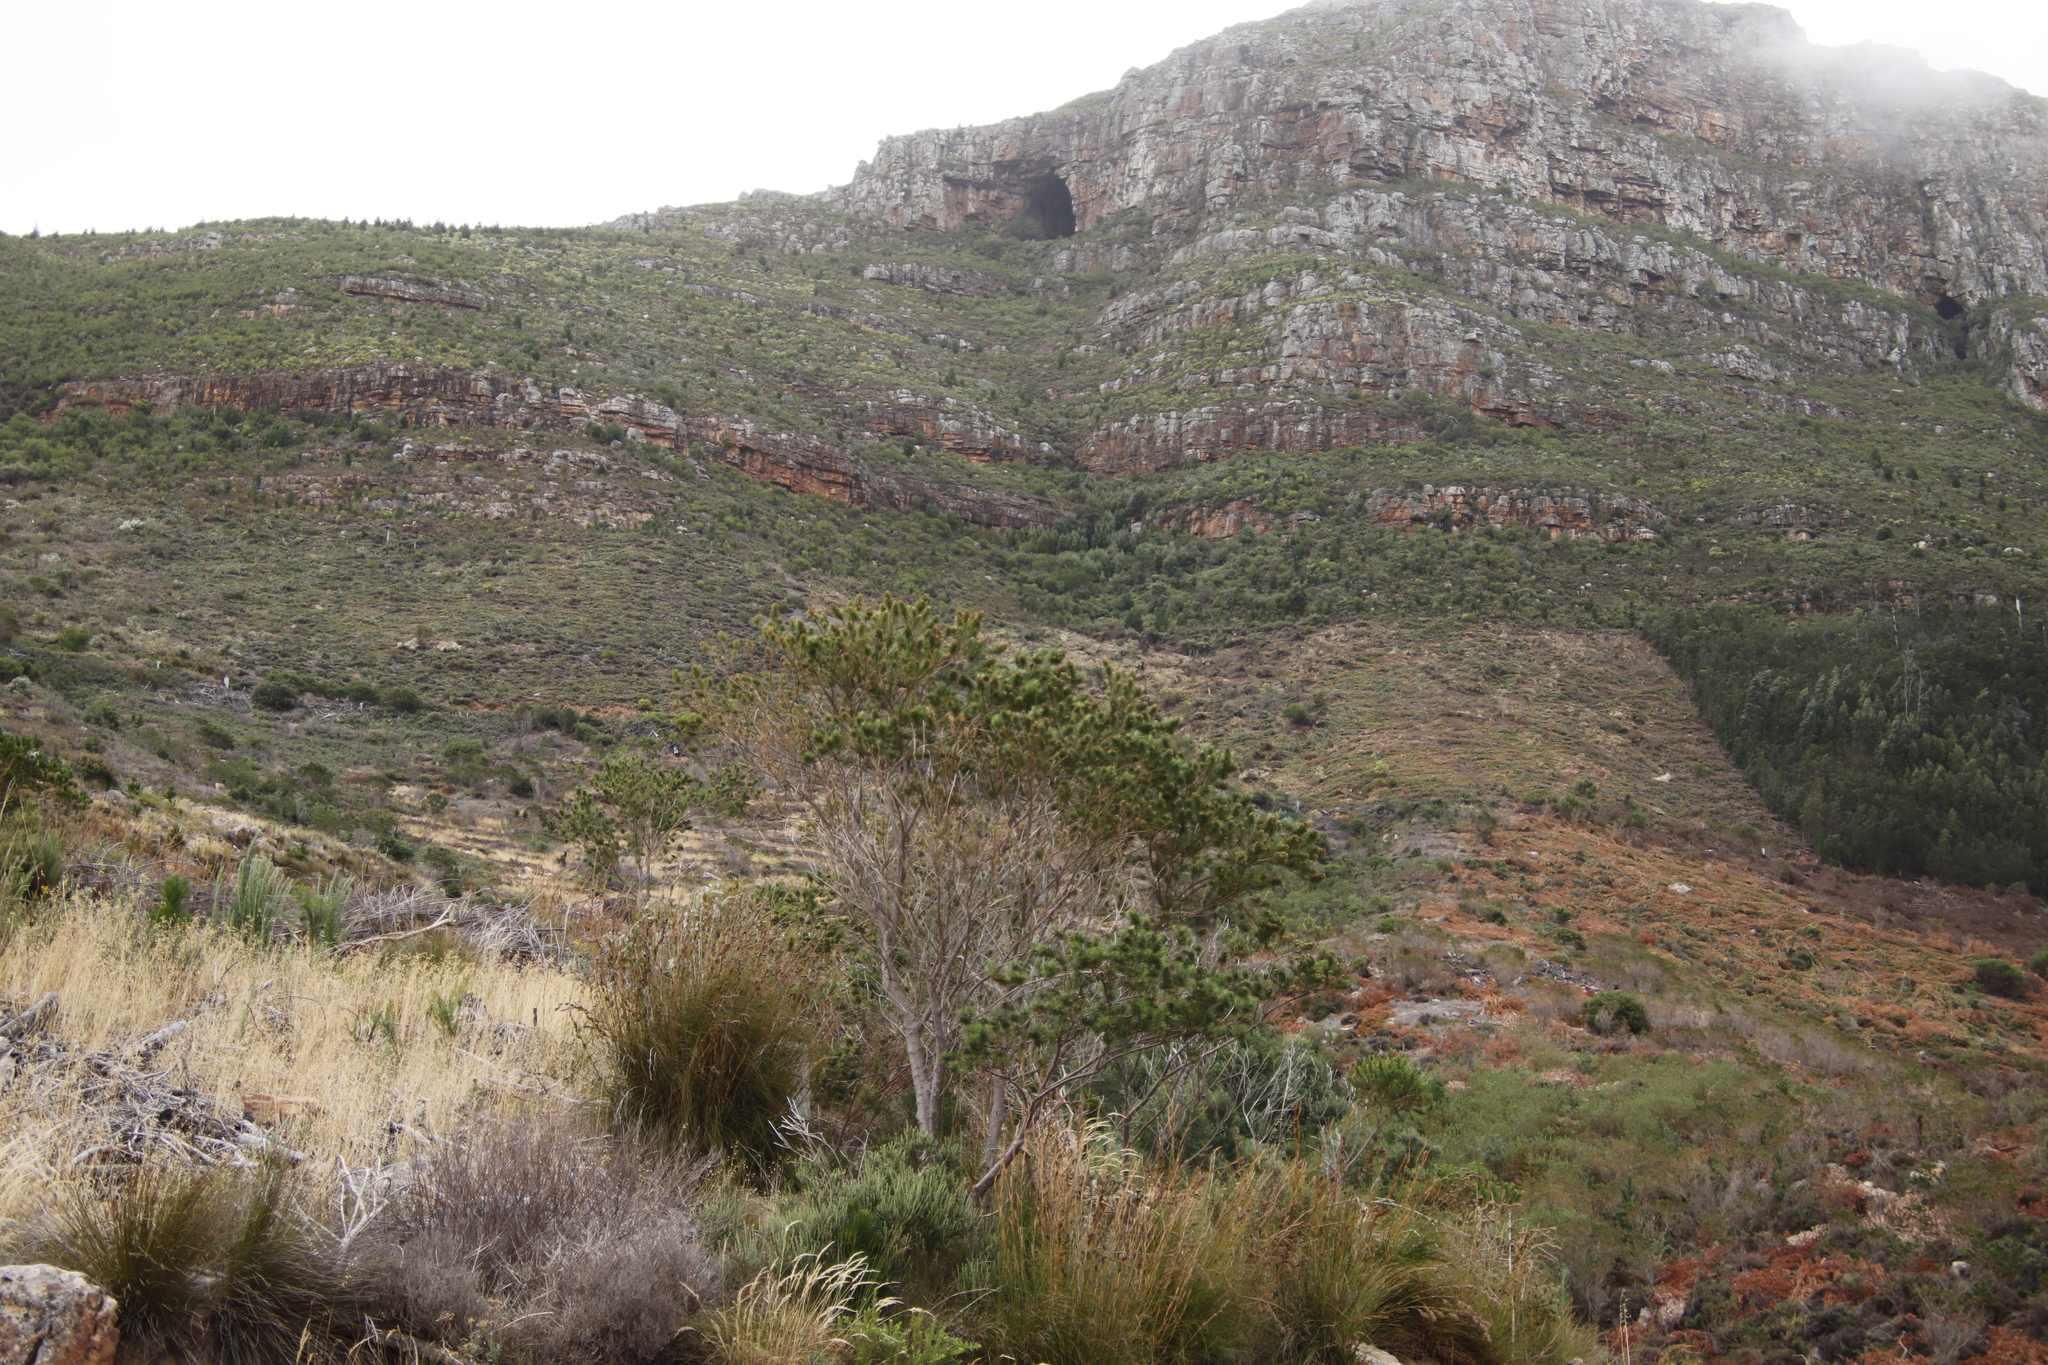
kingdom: Plantae
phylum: Tracheophyta
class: Magnoliopsida
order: Fabales
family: Fabaceae
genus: Psoralea
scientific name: Psoralea pinnata
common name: African scurfpea
